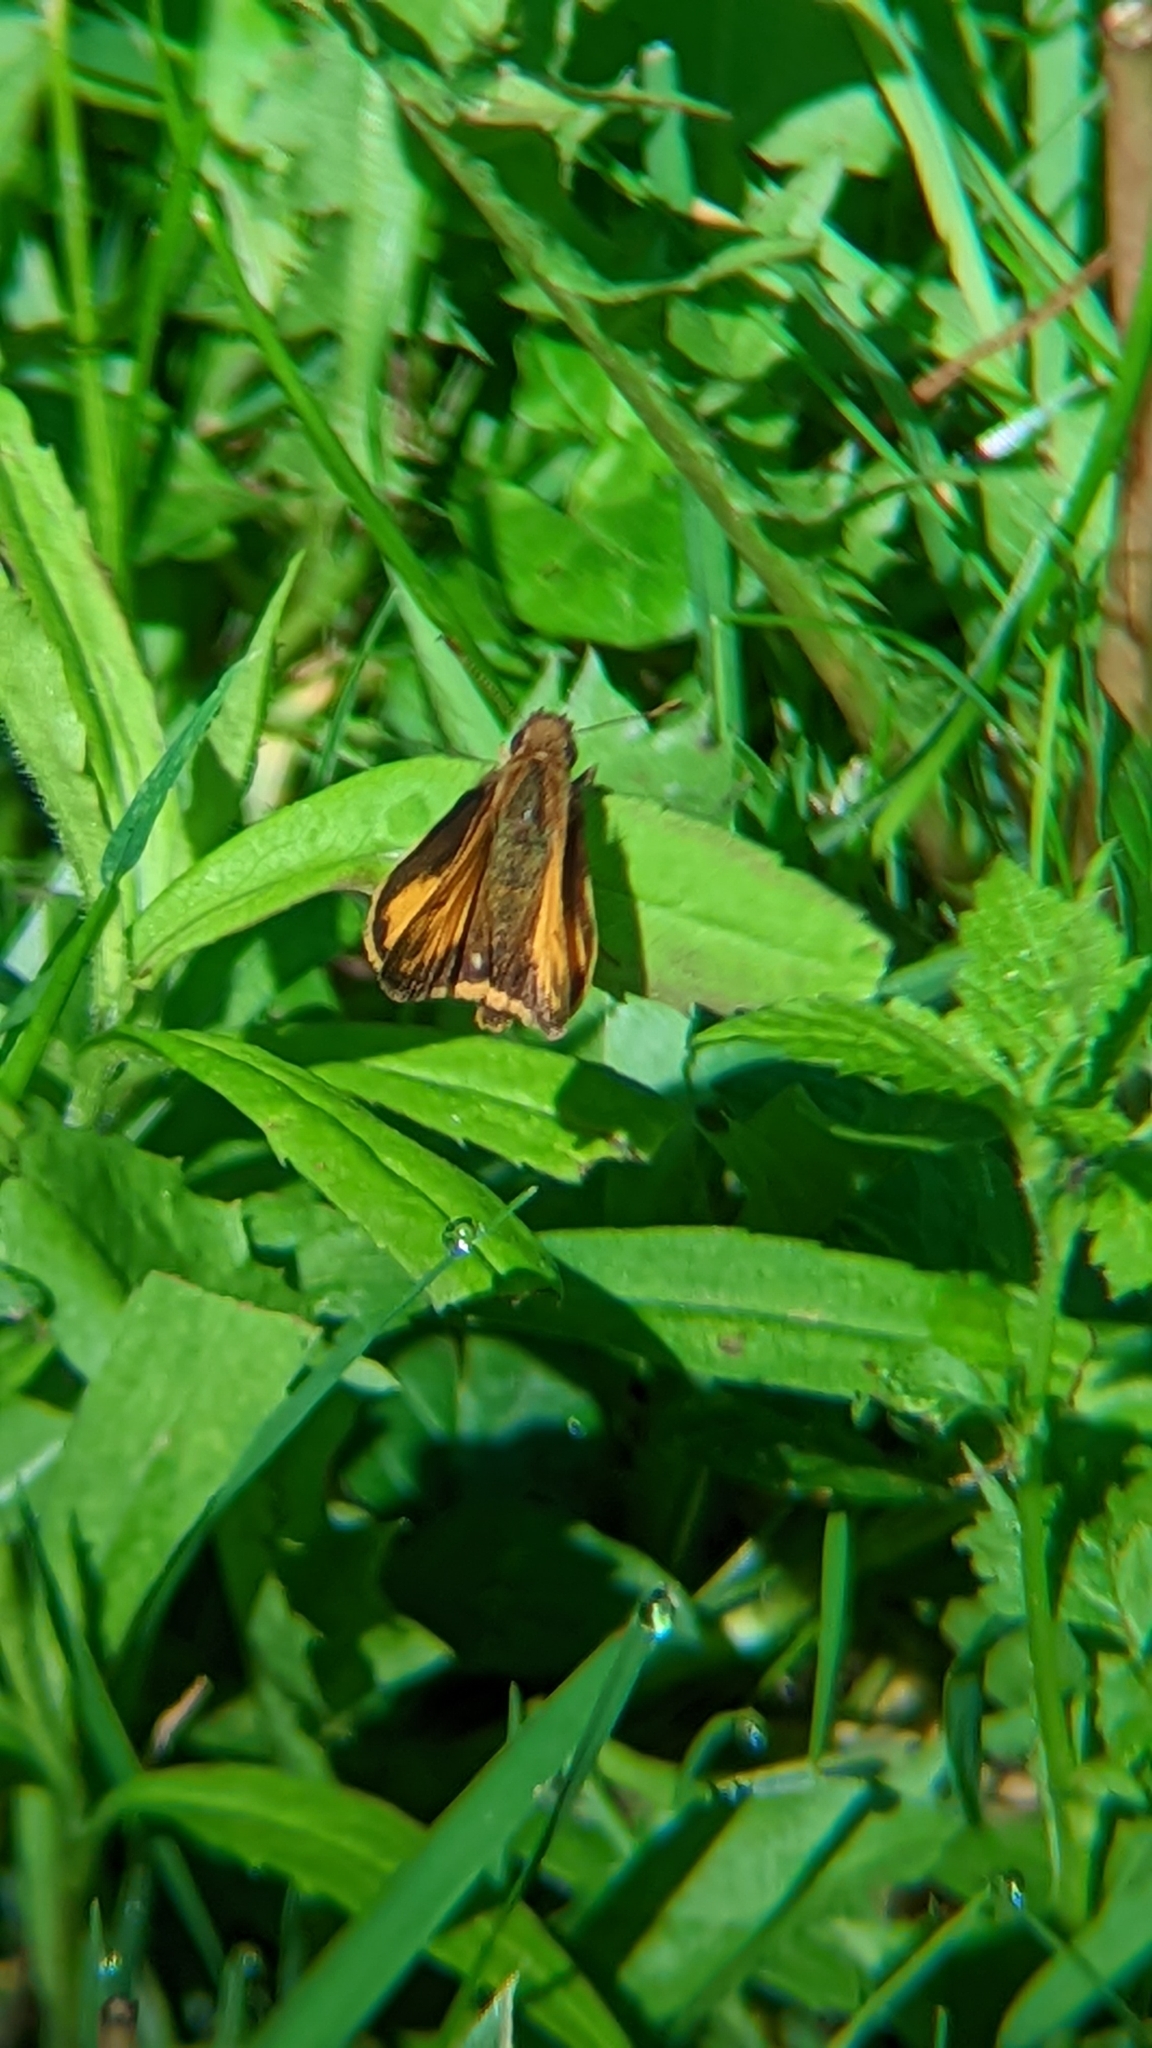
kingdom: Animalia
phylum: Arthropoda
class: Insecta
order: Lepidoptera
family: Hesperiidae
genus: Lon
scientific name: Lon zabulon
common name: Zabulon skipper
